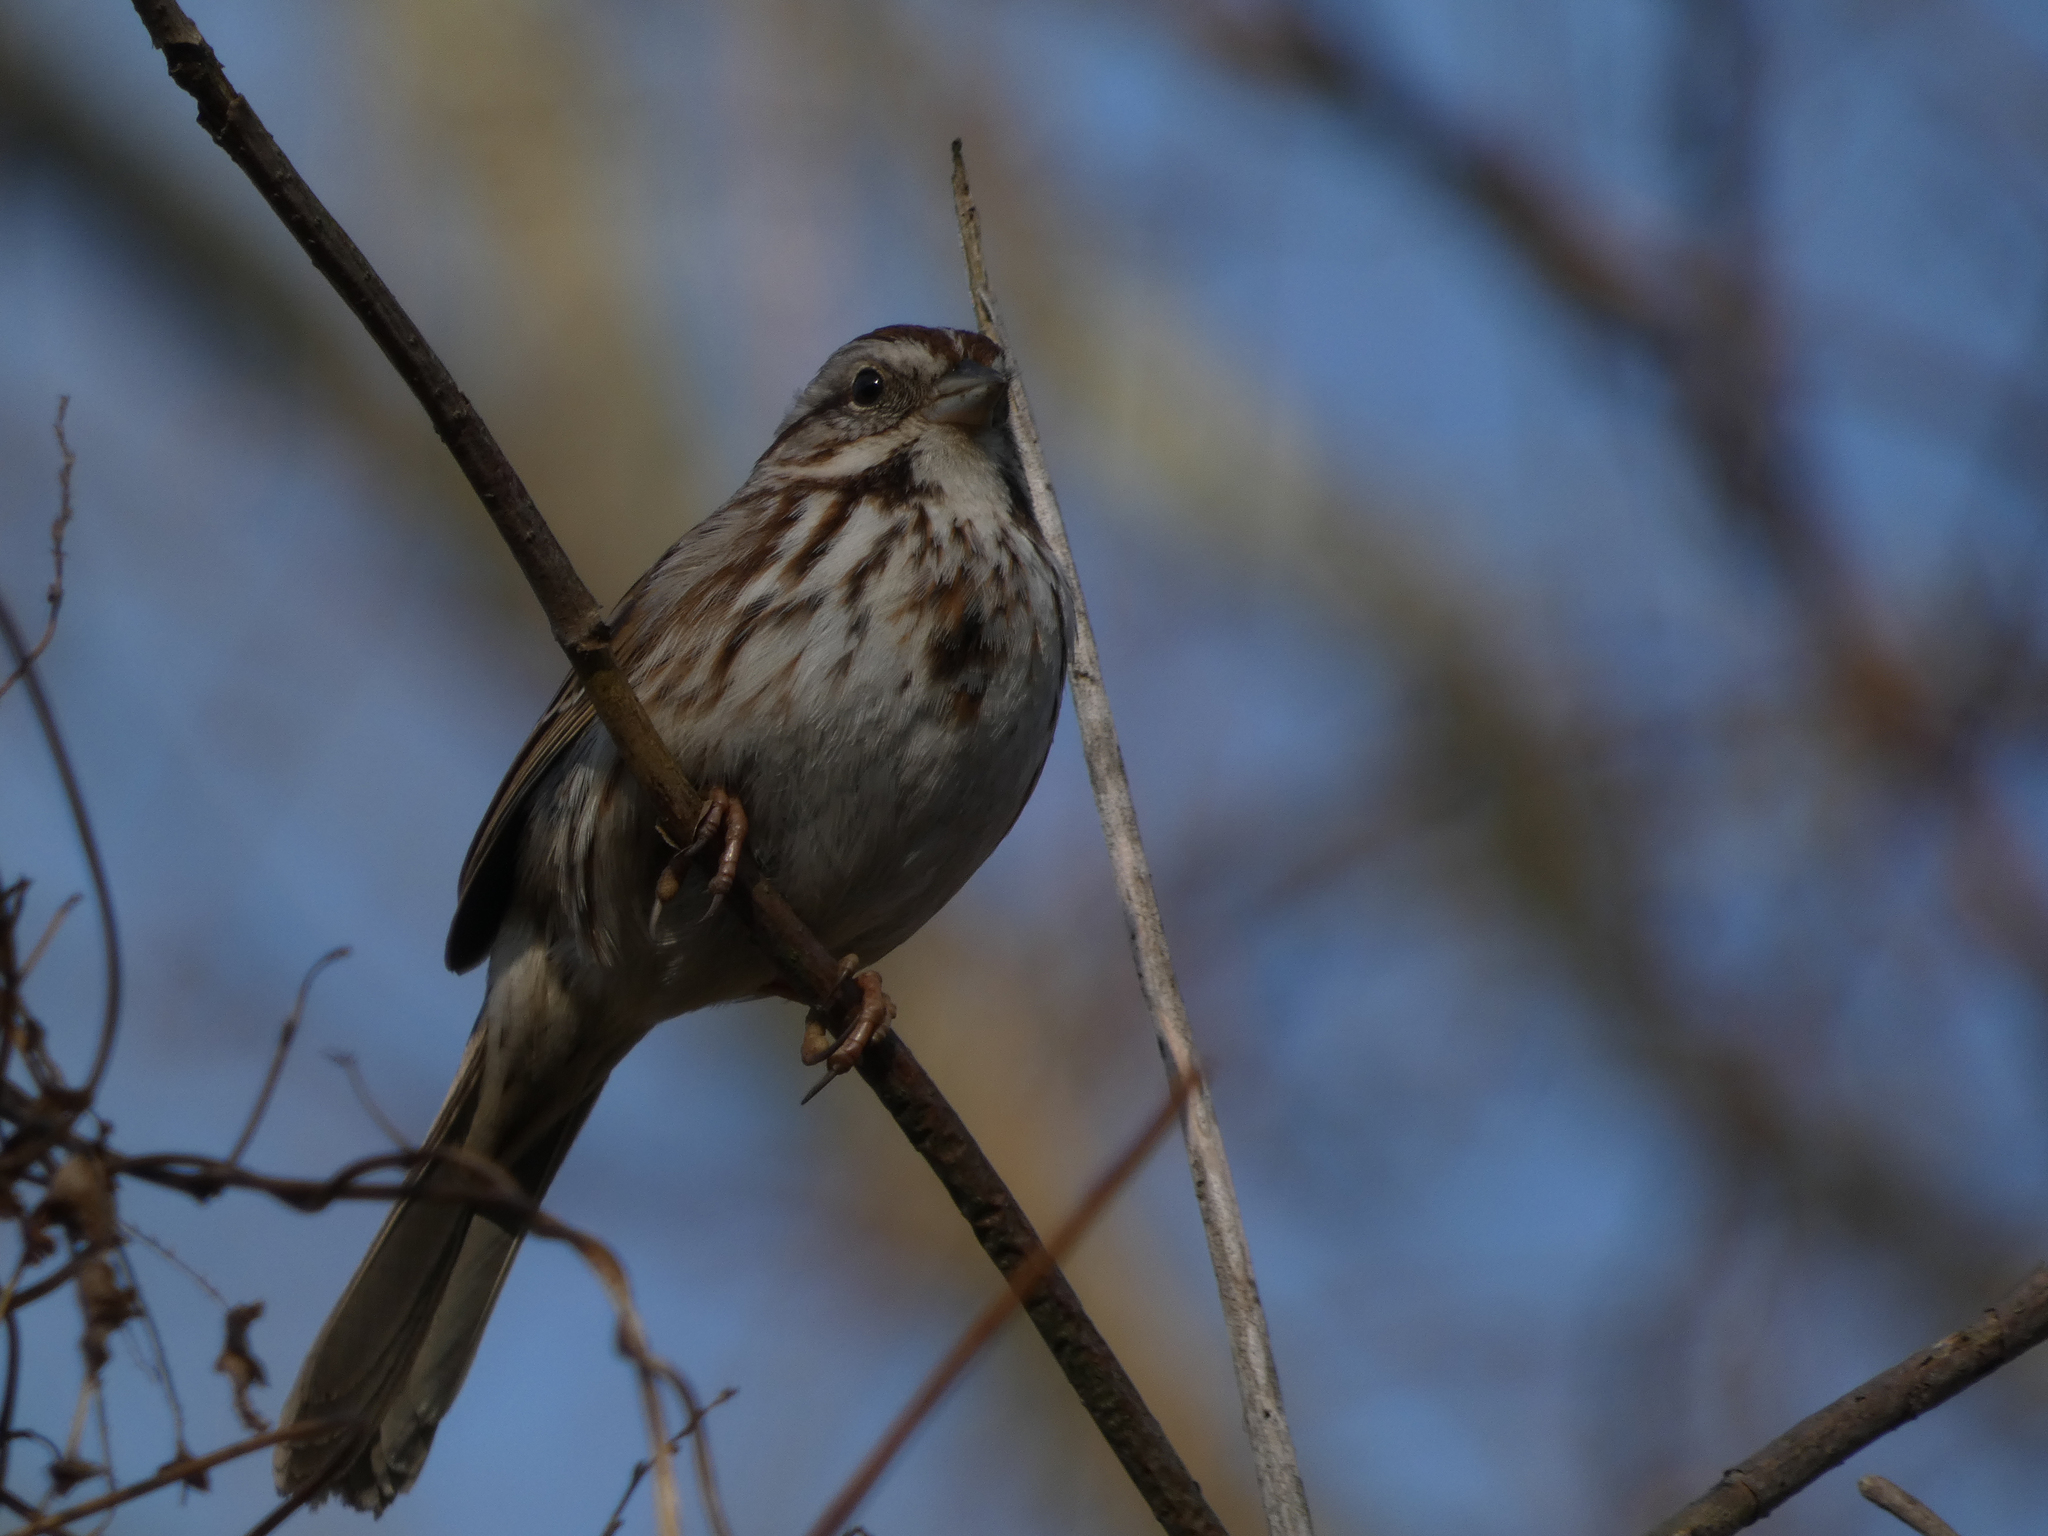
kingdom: Animalia
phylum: Chordata
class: Aves
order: Passeriformes
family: Passerellidae
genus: Melospiza
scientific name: Melospiza melodia
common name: Song sparrow
